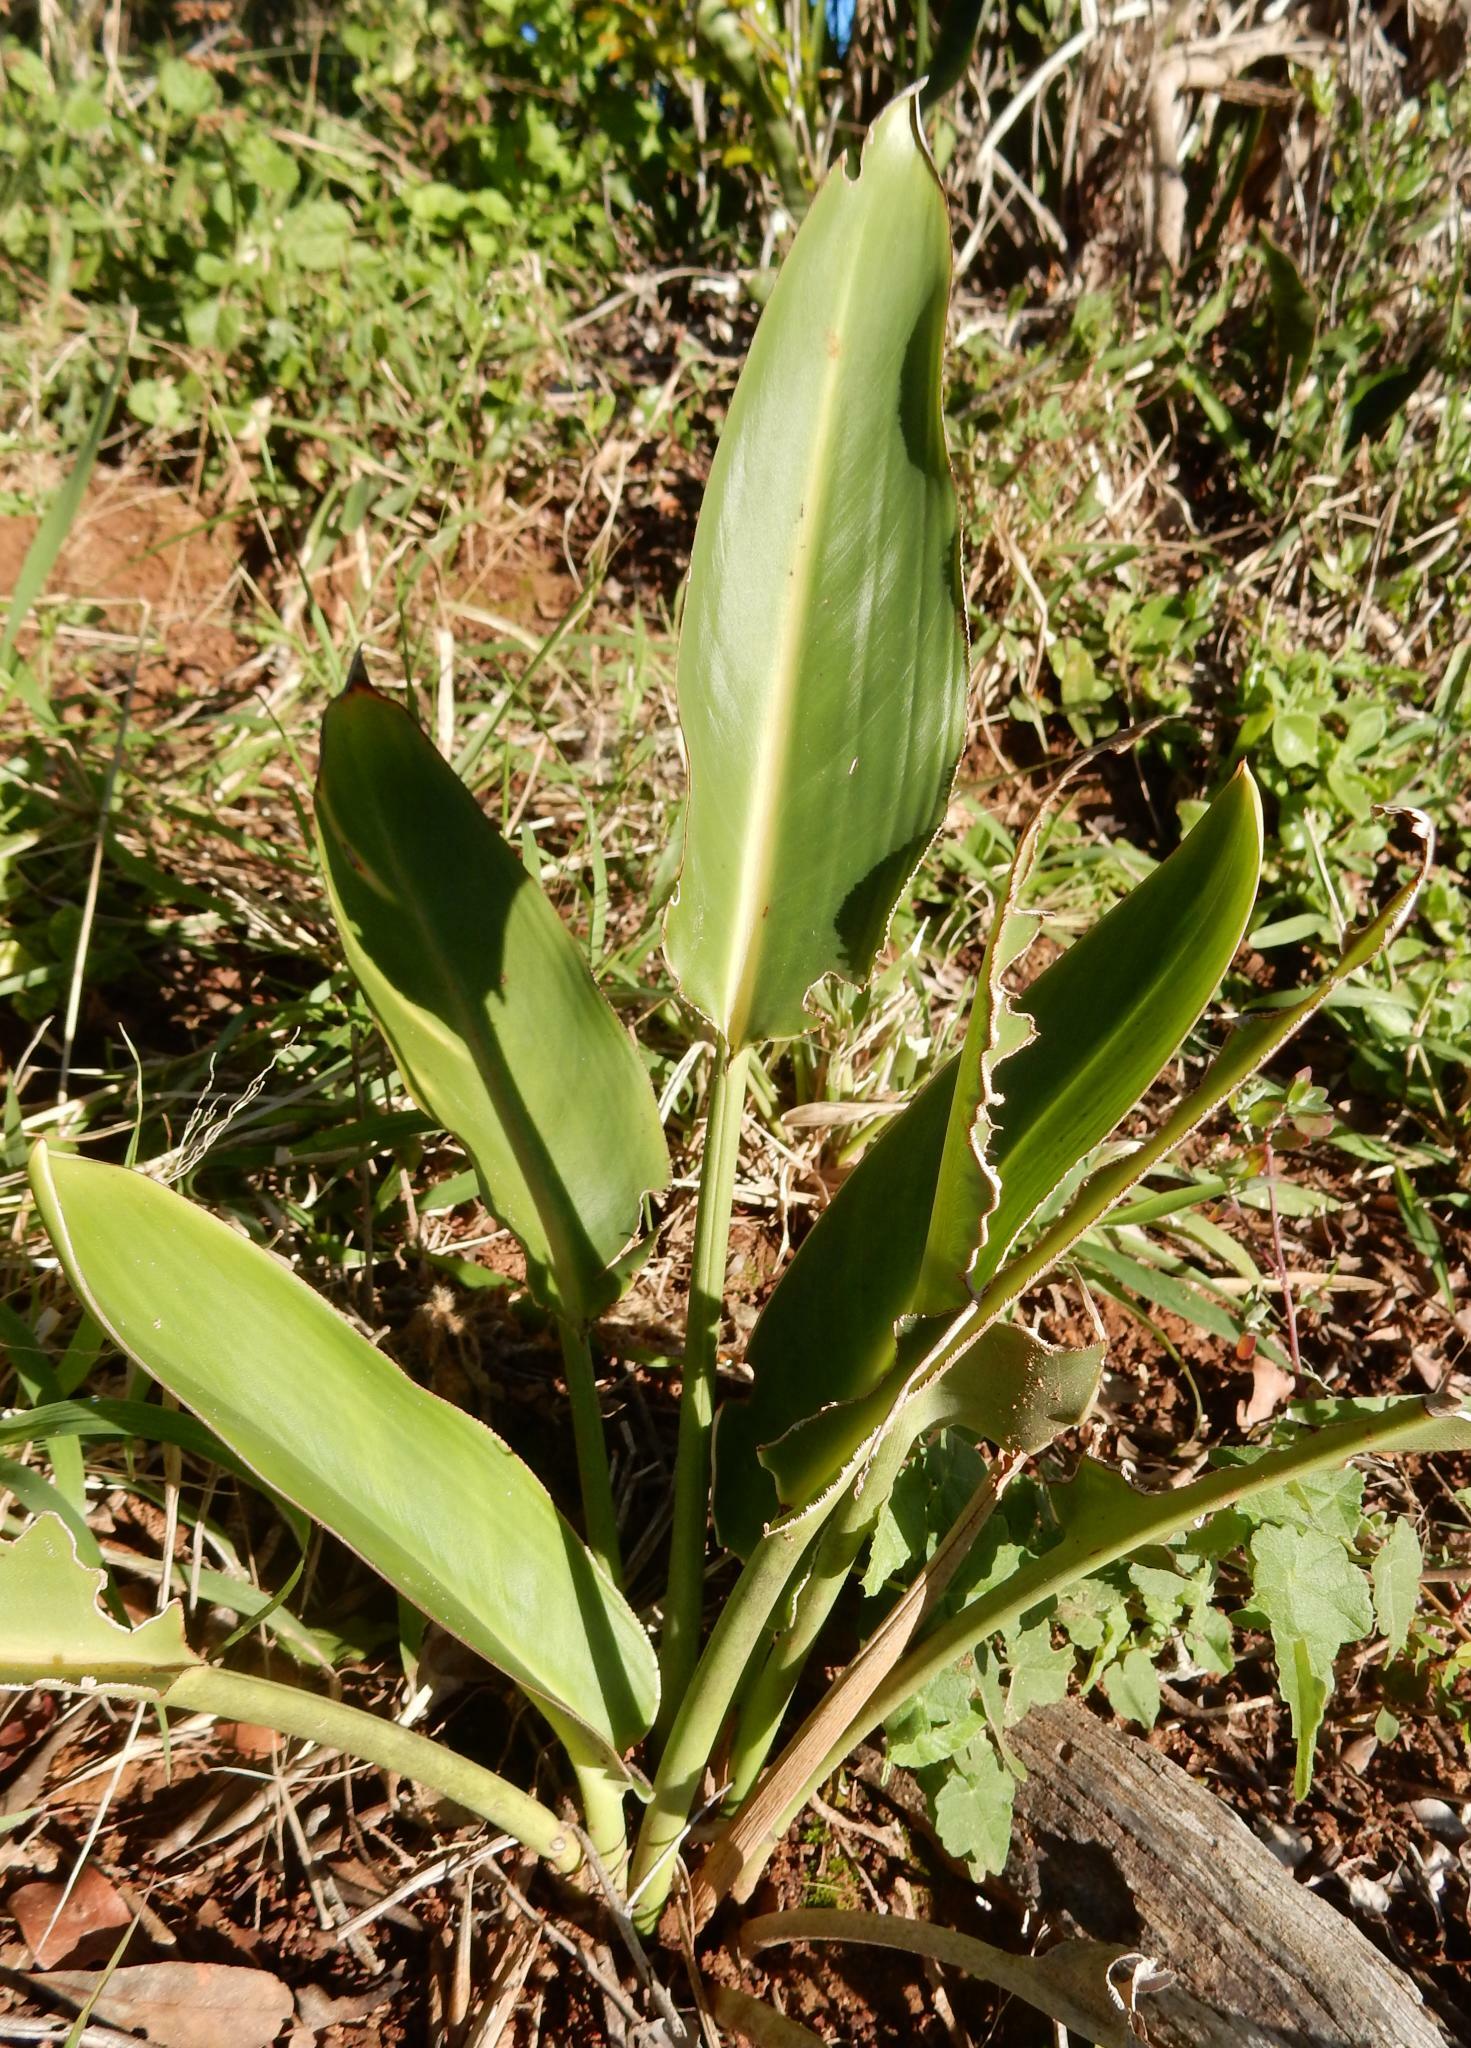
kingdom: Plantae
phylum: Tracheophyta
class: Liliopsida
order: Zingiberales
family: Strelitziaceae
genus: Strelitzia
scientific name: Strelitzia reginae
